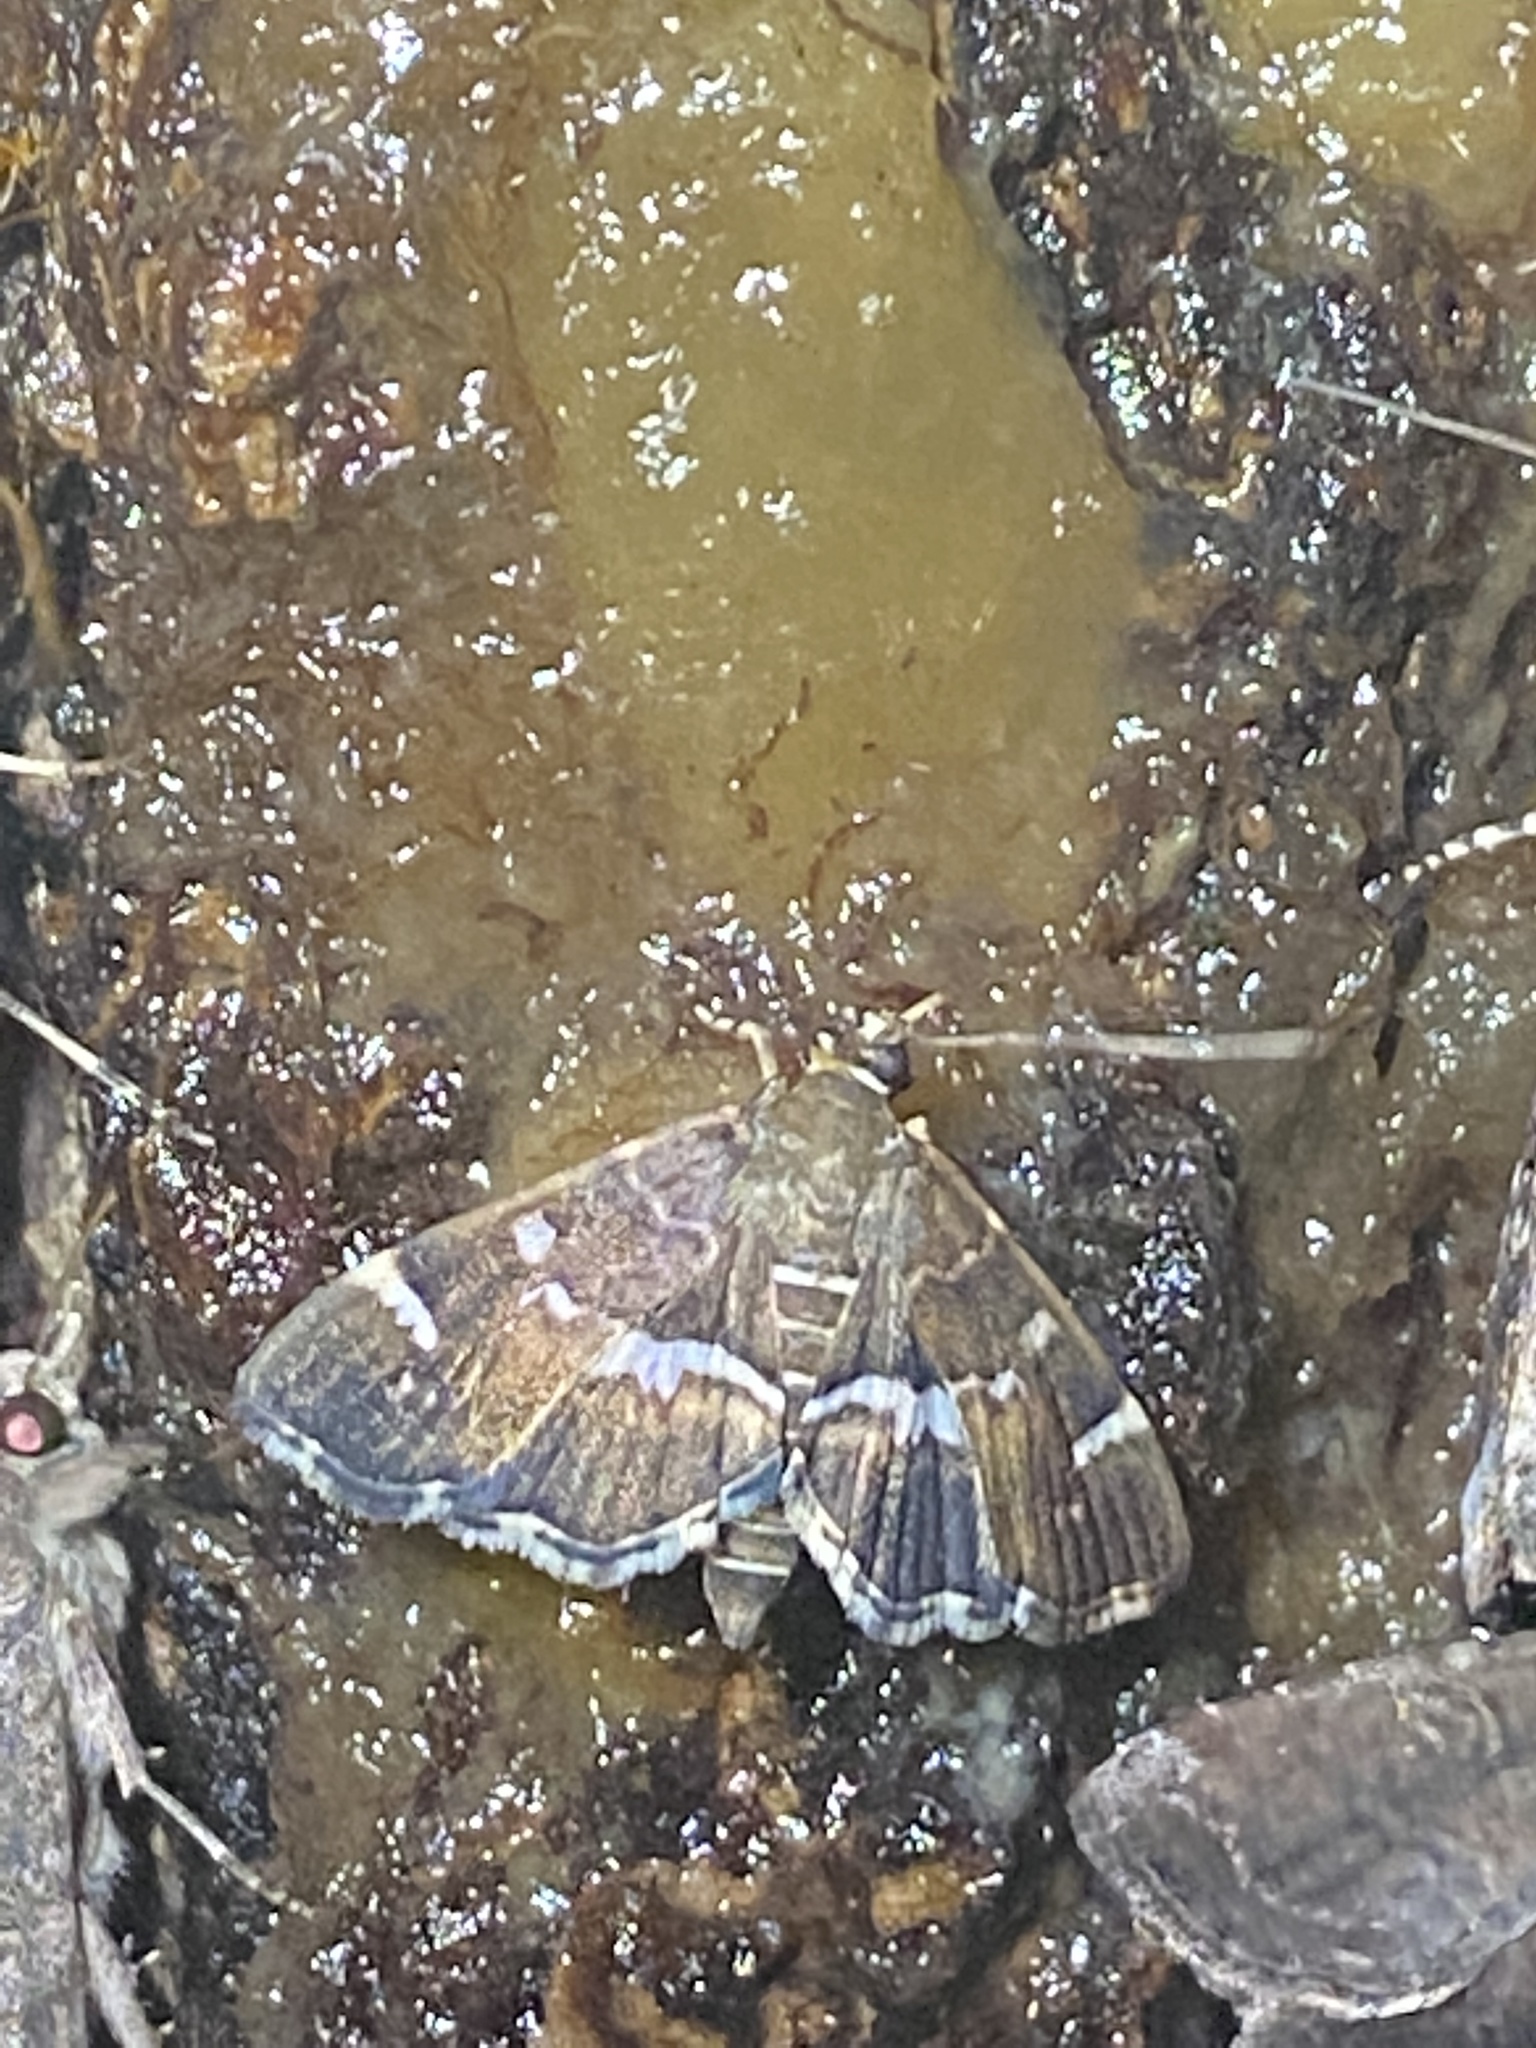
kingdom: Animalia
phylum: Arthropoda
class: Insecta
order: Lepidoptera
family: Crambidae
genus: Hymenia
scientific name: Hymenia perspectalis
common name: Spotted beet webworm
